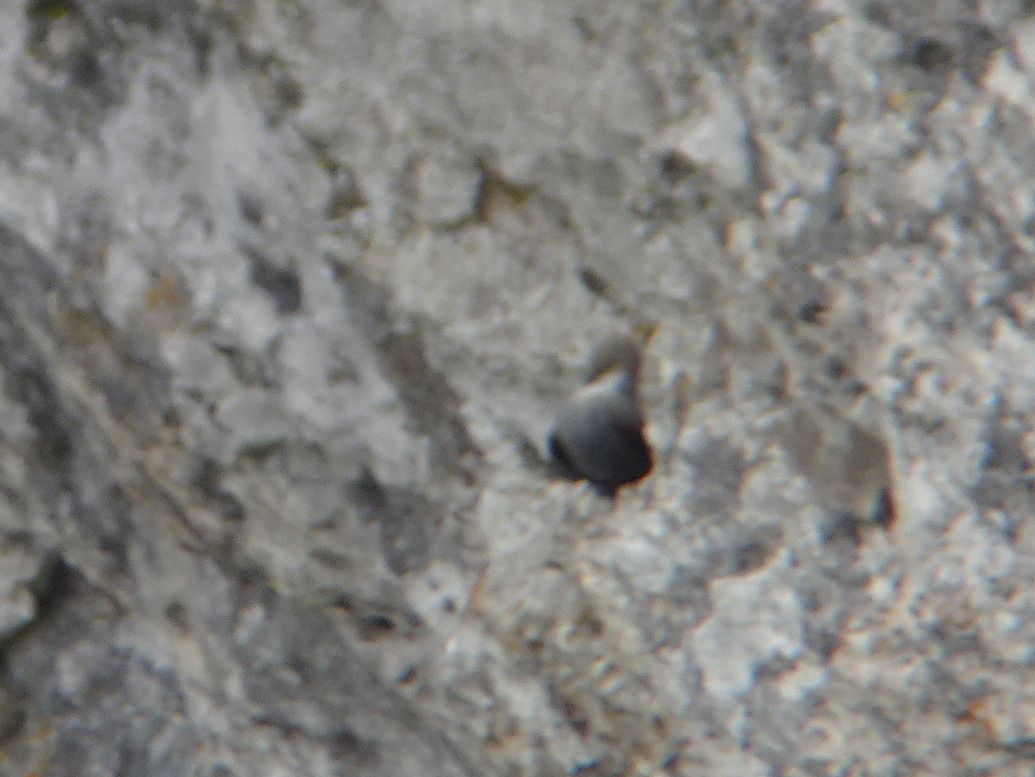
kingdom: Animalia
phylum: Chordata
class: Aves
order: Passeriformes
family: Tichodromidae
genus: Tichodroma
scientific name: Tichodroma muraria
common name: Wallcreeper
